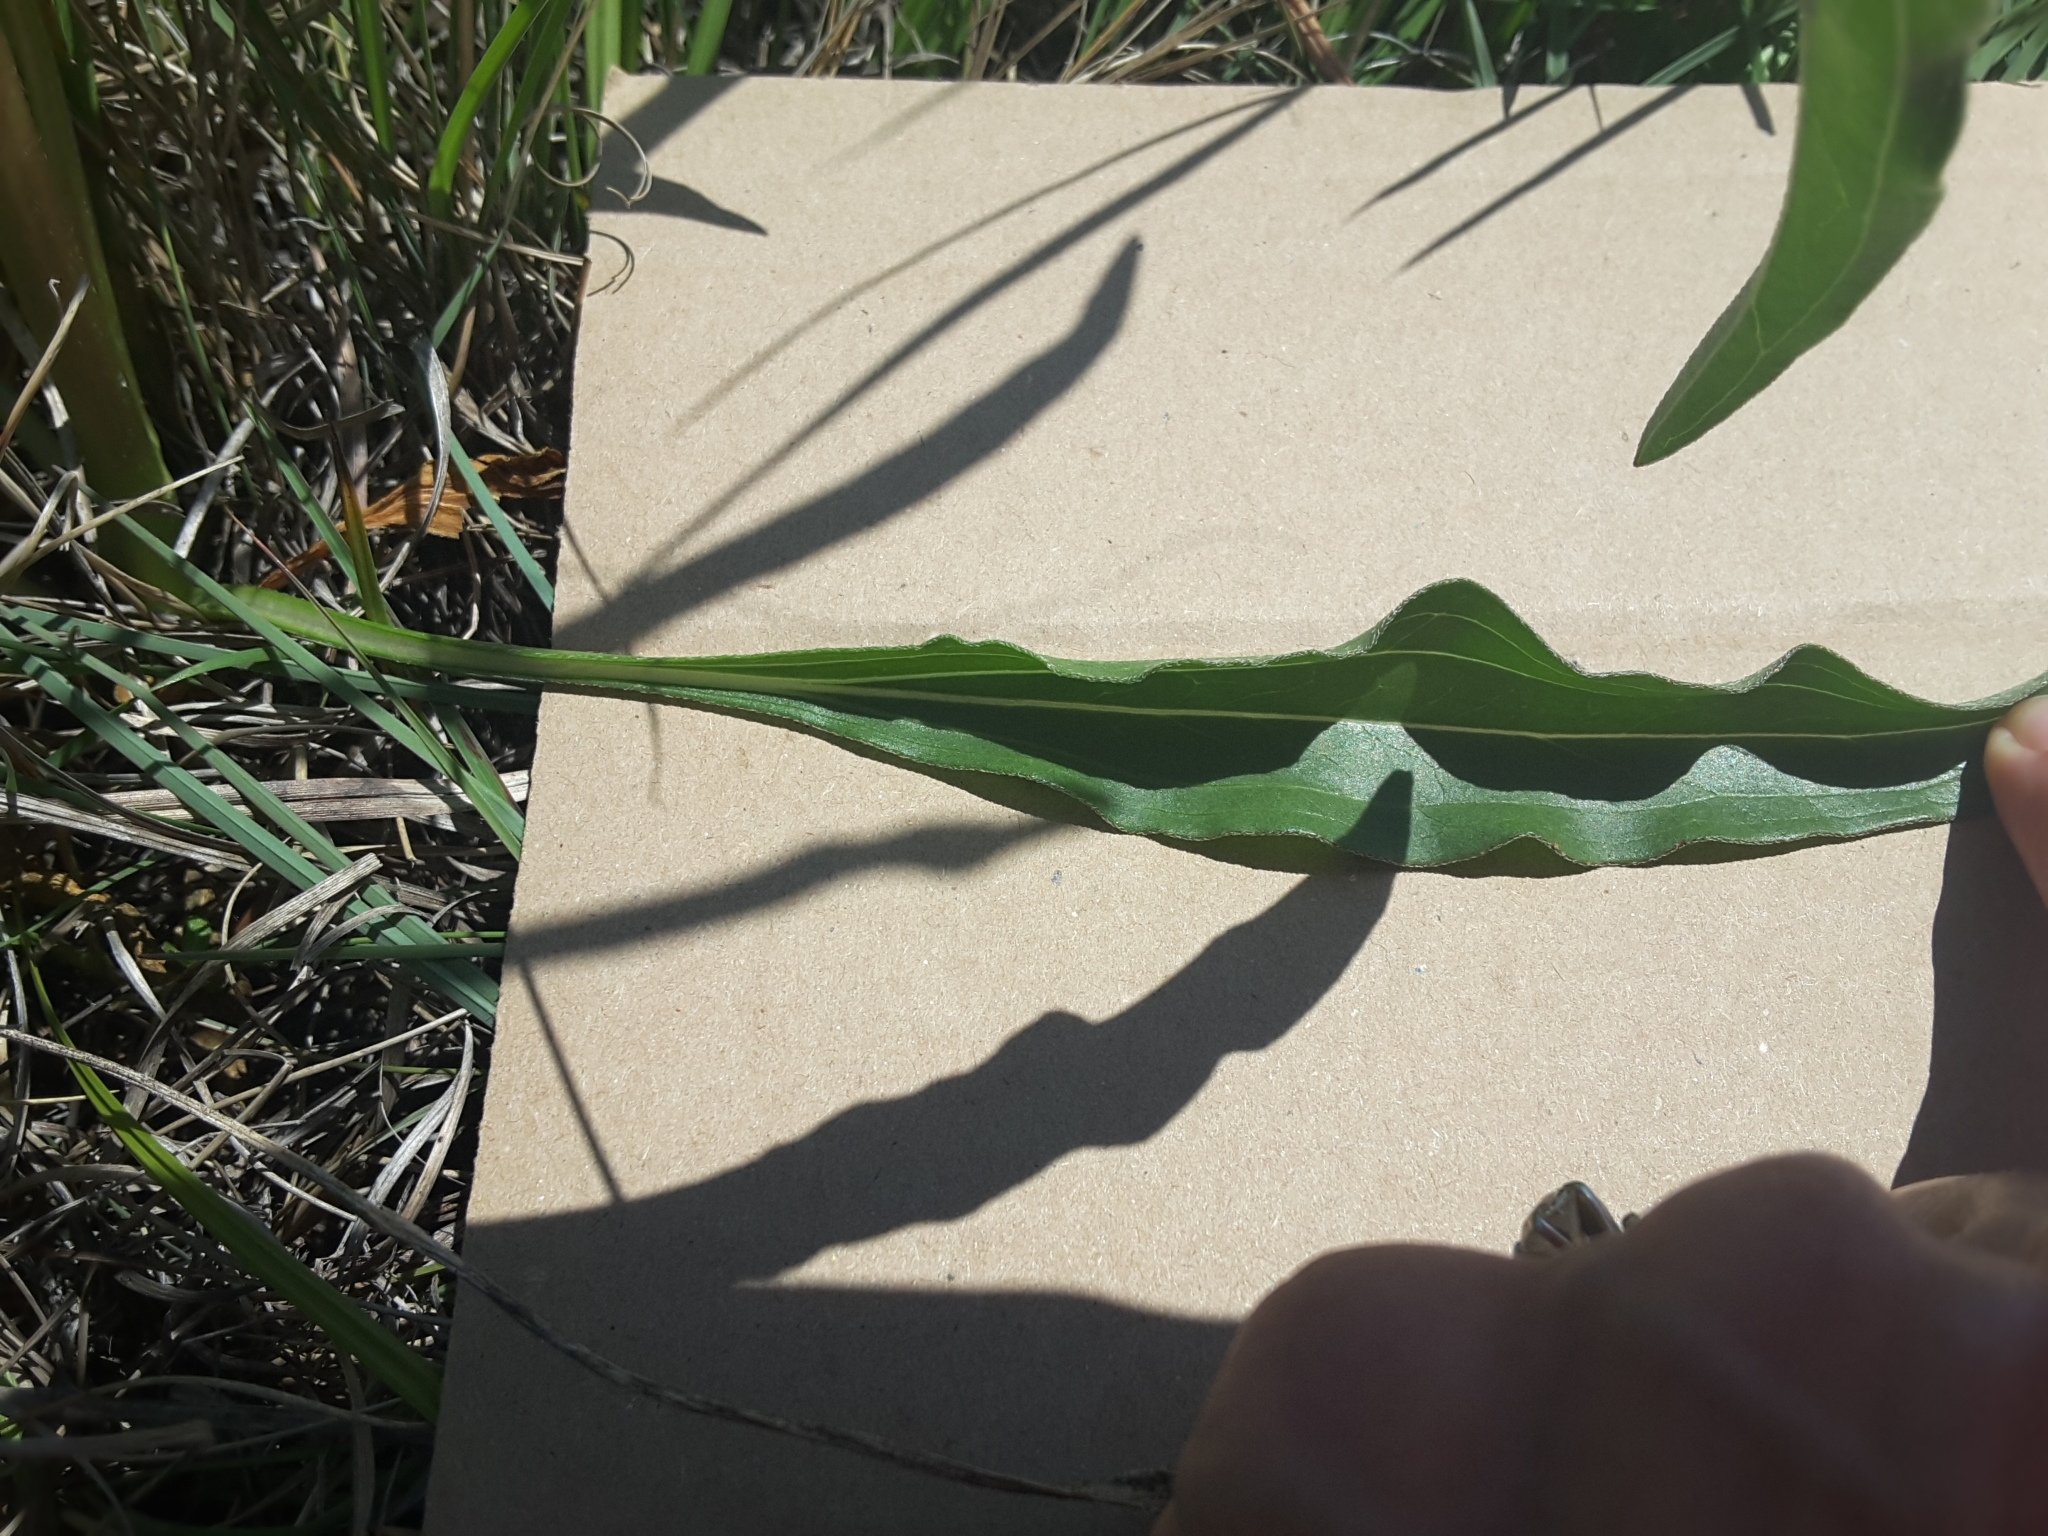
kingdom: Plantae
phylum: Tracheophyta
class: Magnoliopsida
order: Asterales
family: Asteraceae
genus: Echinacea
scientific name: Echinacea atrorubens
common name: Topeka purple-coneflower
